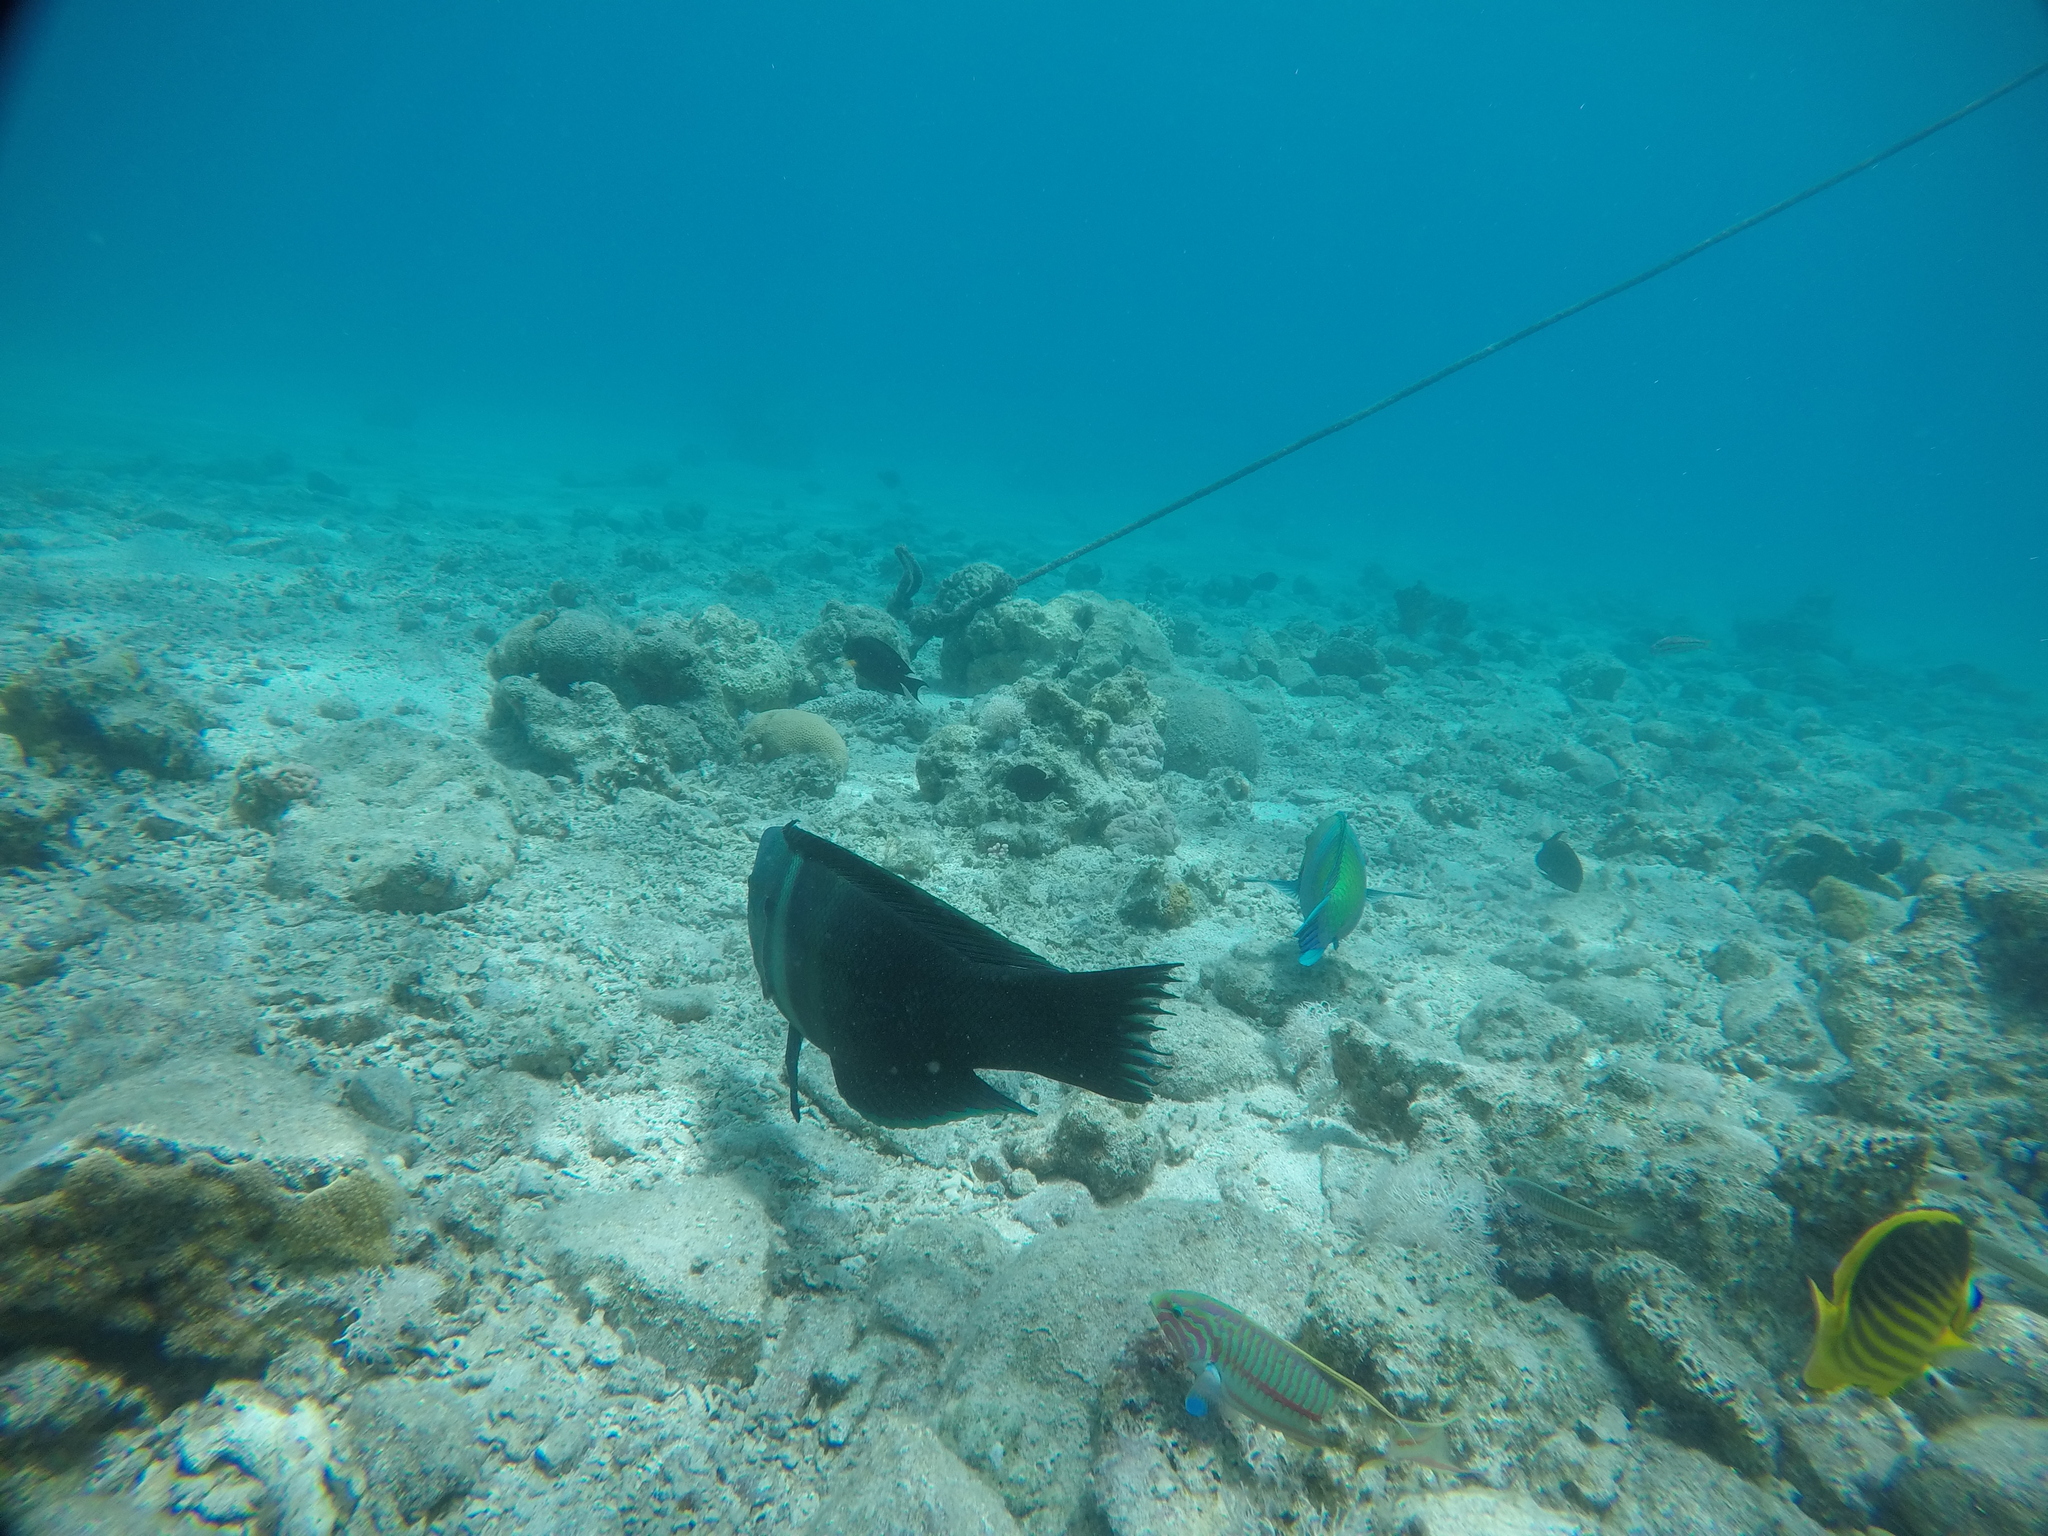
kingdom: Animalia
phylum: Chordata
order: Perciformes
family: Labridae
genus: Cheilinus
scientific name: Cheilinus lunulatus
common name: Broomtail wrasse
